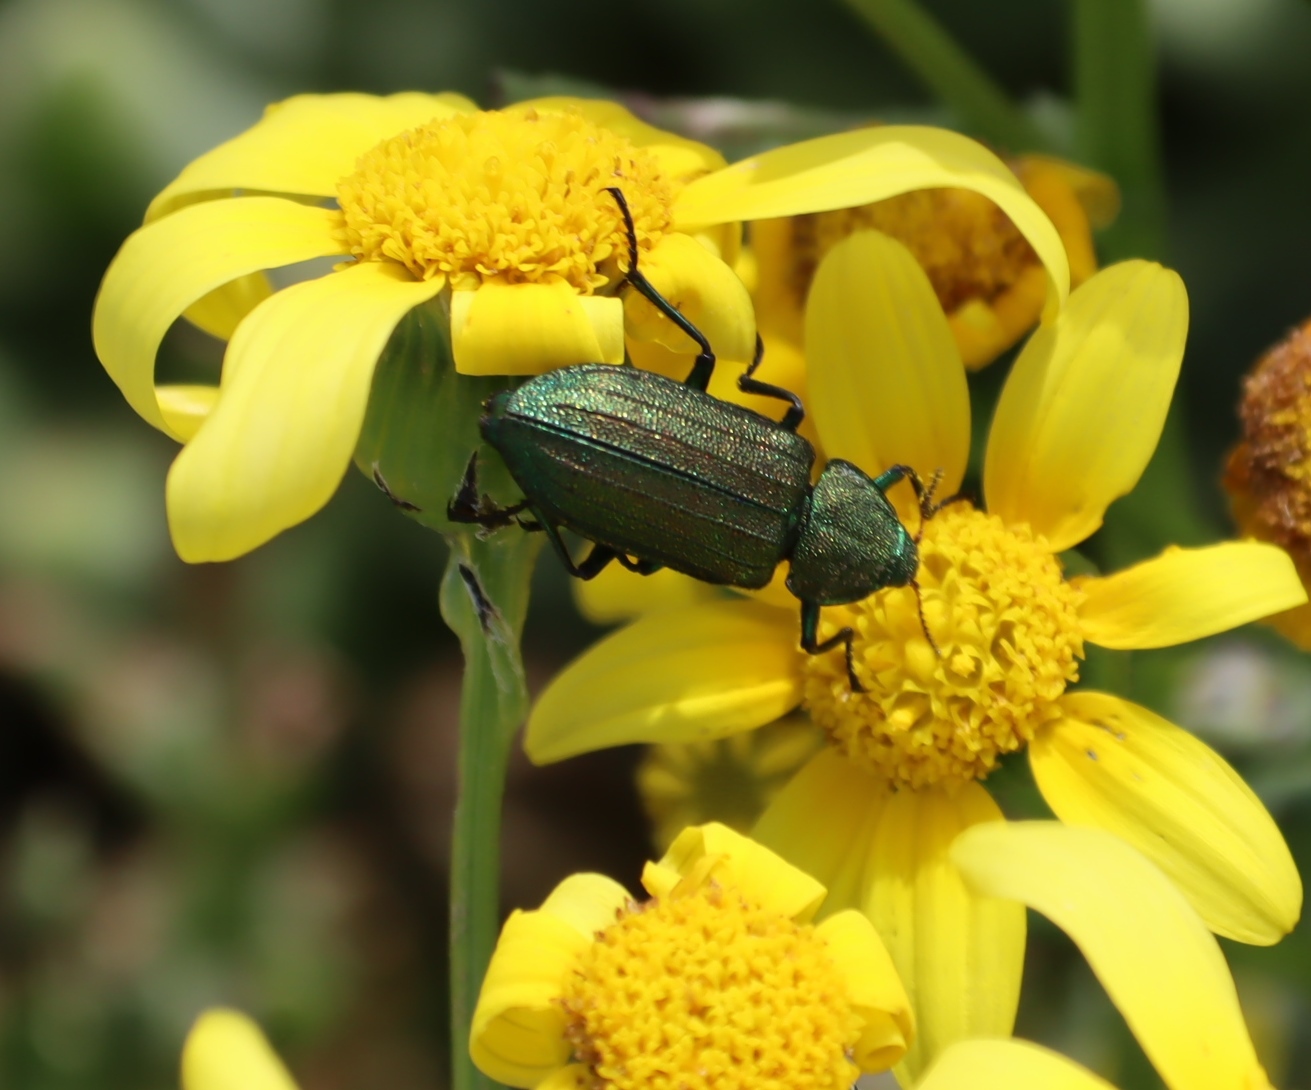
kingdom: Animalia
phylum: Arthropoda
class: Insecta
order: Coleoptera
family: Melyridae
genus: Melyris
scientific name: Melyris viridis
